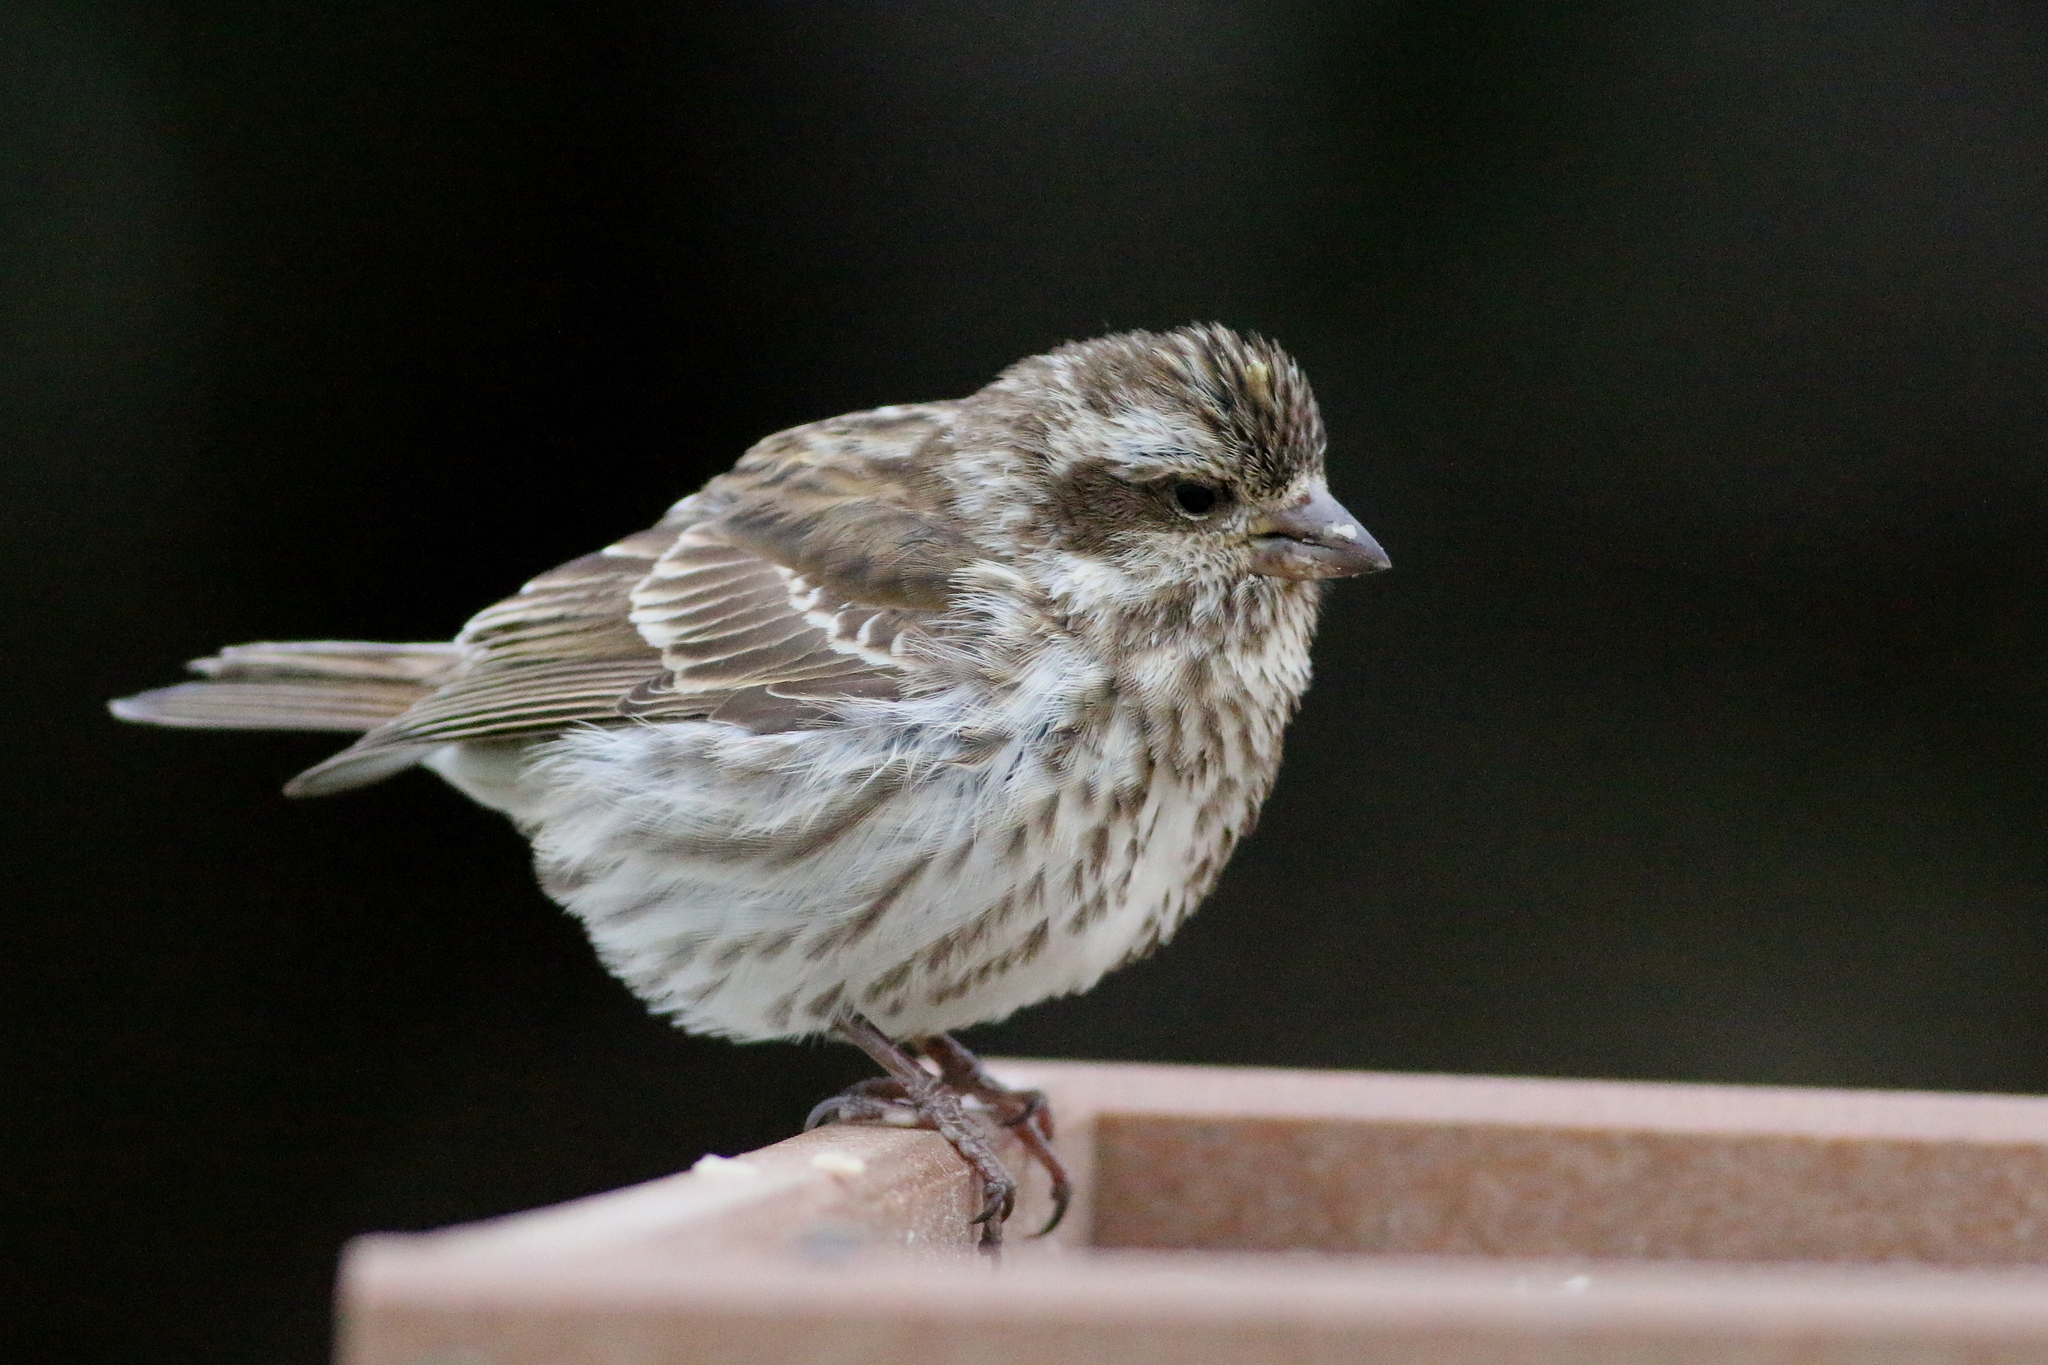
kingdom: Animalia
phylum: Chordata
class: Aves
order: Passeriformes
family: Fringillidae
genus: Haemorhous
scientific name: Haemorhous purpureus
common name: Purple finch
